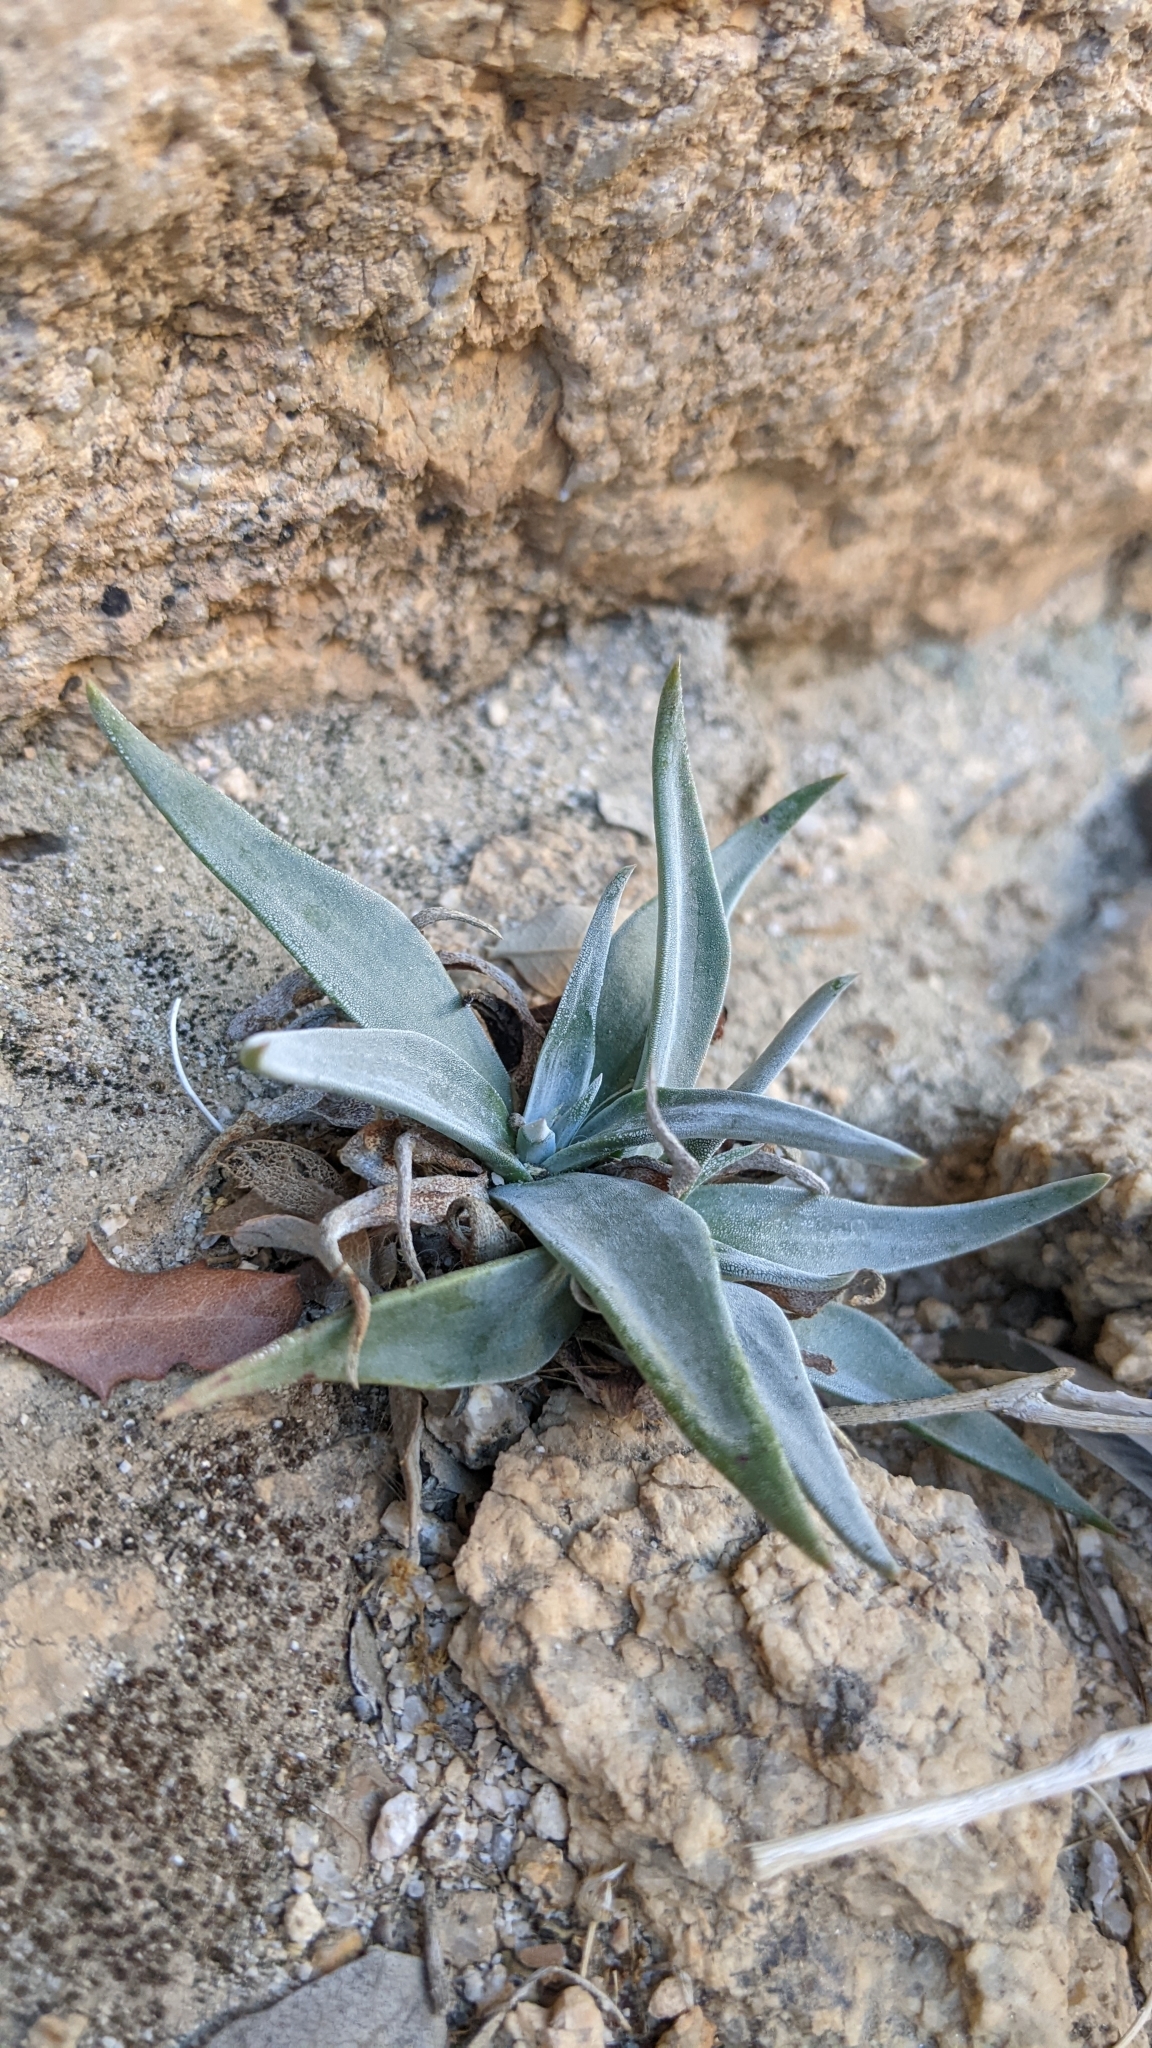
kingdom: Plantae
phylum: Tracheophyta
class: Magnoliopsida
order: Saxifragales
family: Crassulaceae
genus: Dudleya
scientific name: Dudleya saxosa
